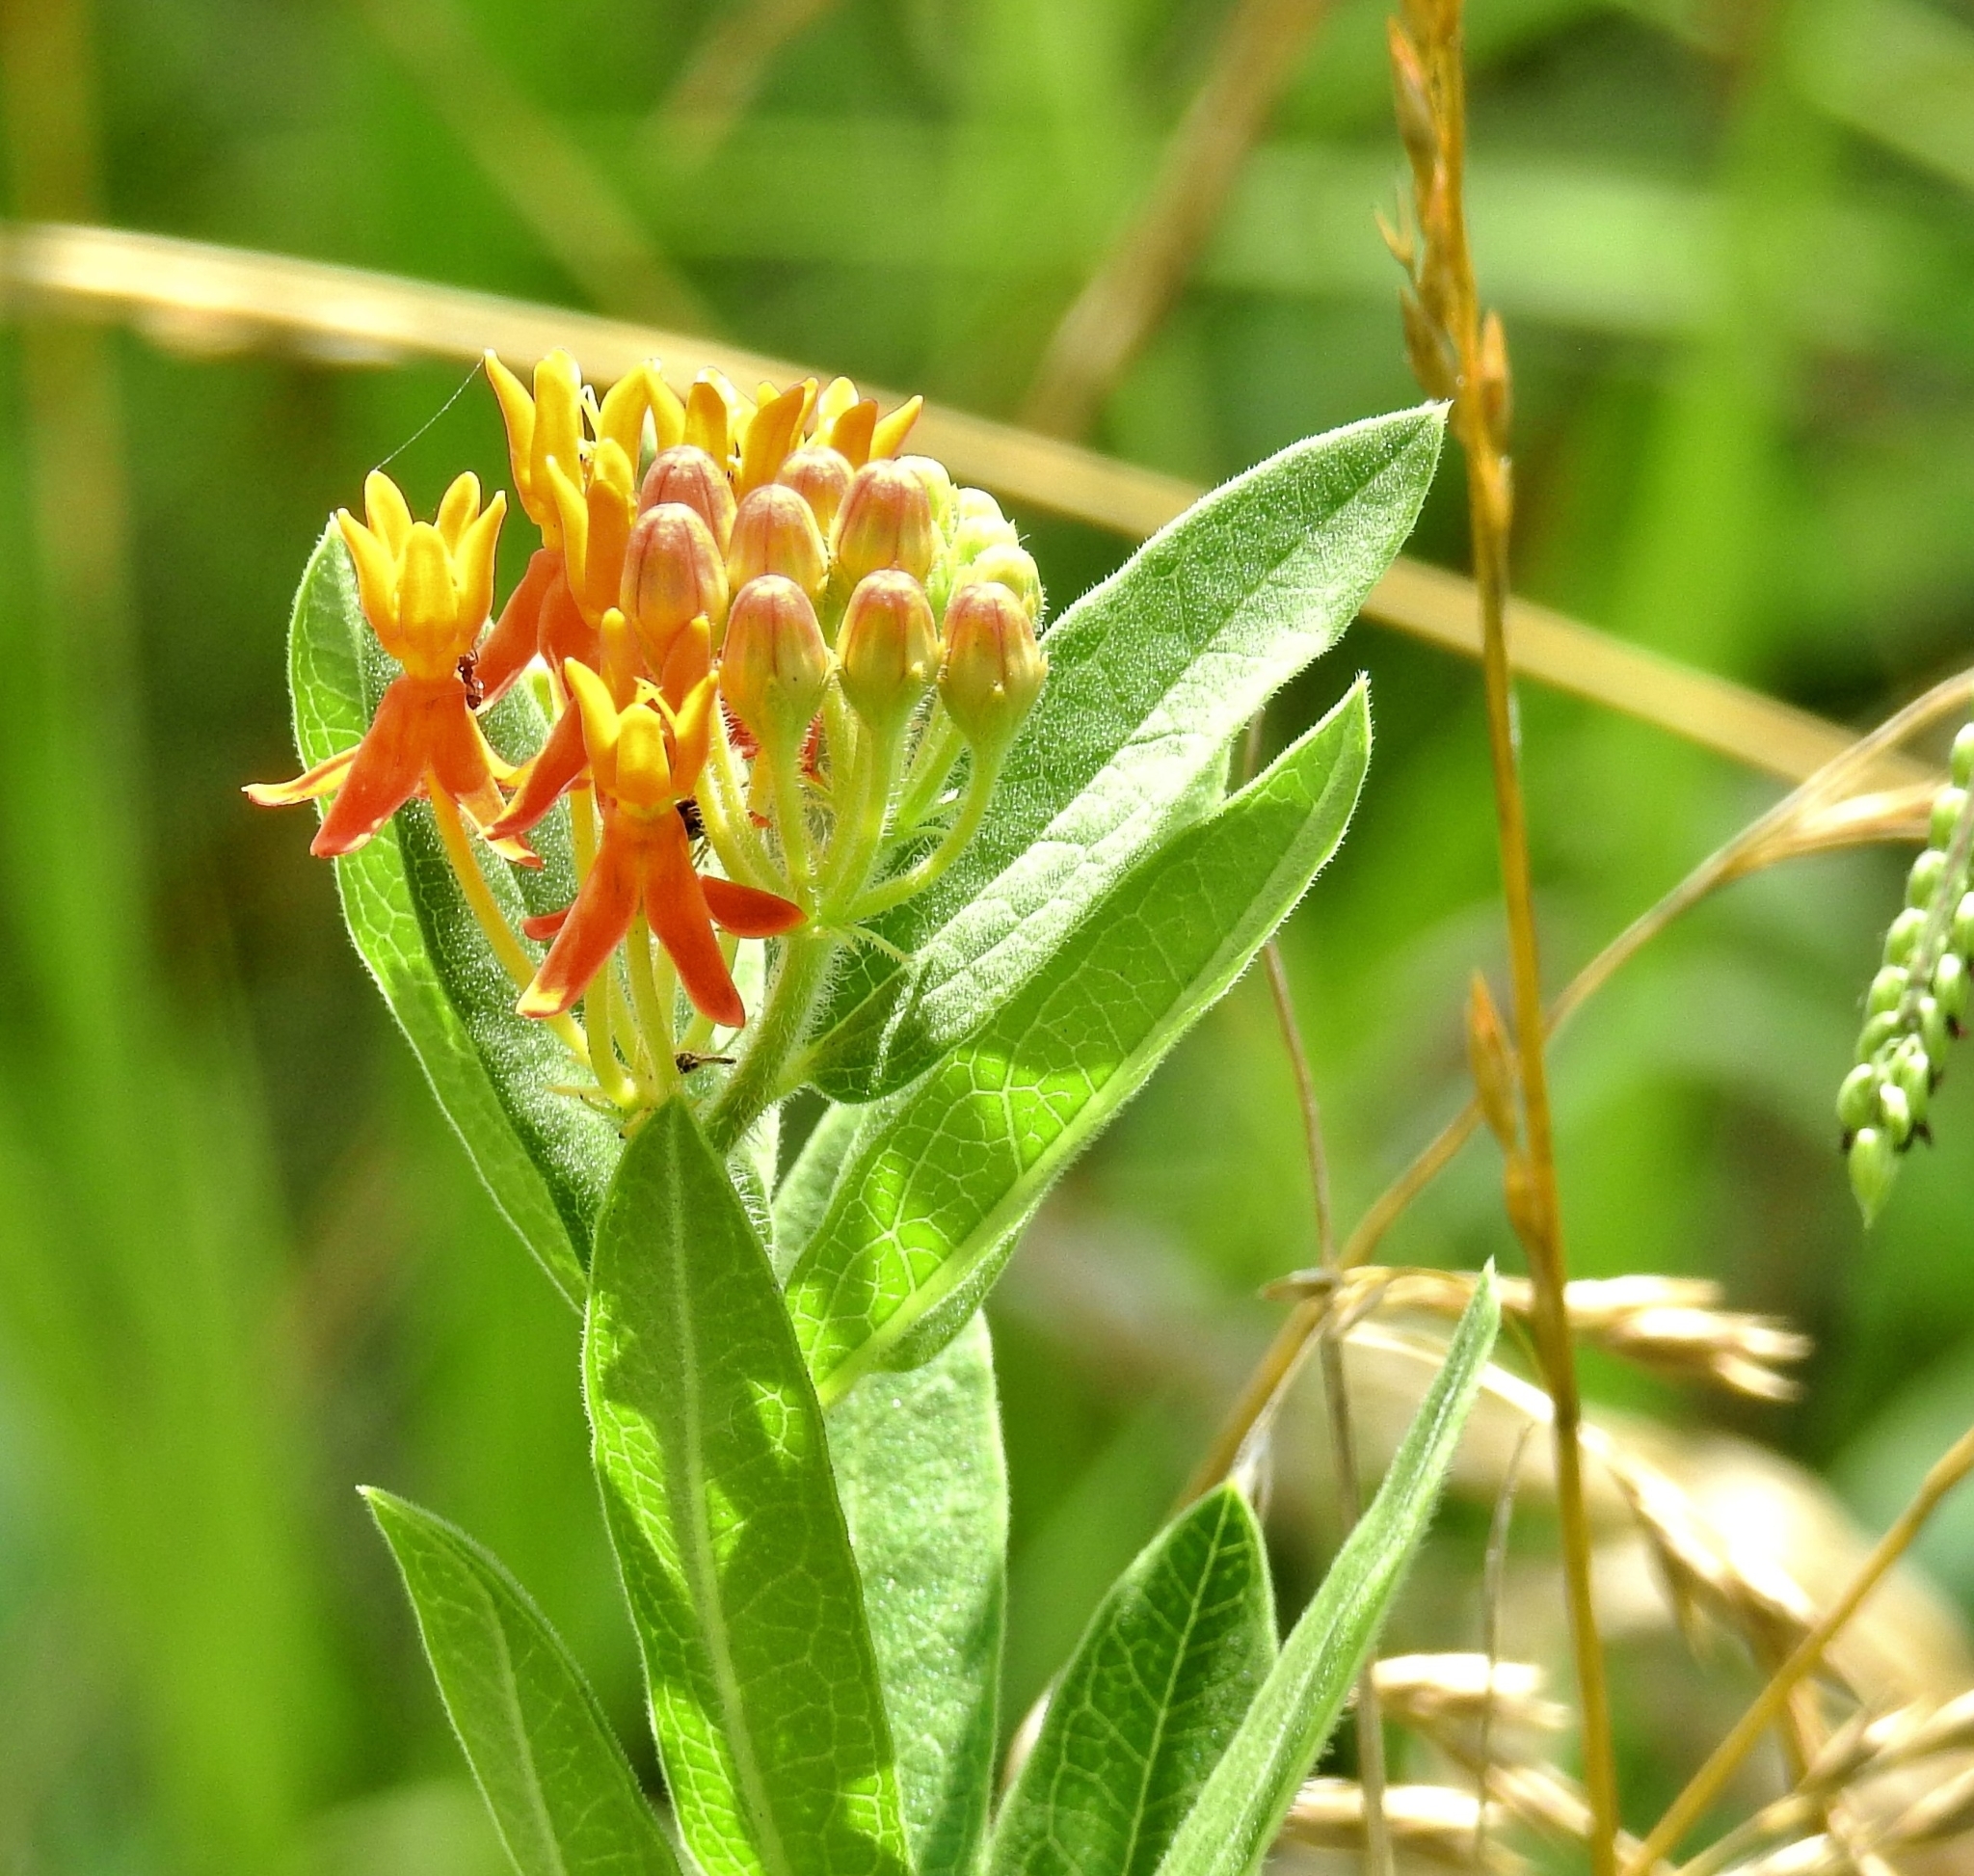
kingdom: Plantae
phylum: Tracheophyta
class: Magnoliopsida
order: Gentianales
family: Apocynaceae
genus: Asclepias
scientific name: Asclepias tuberosa
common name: Butterfly milkweed
